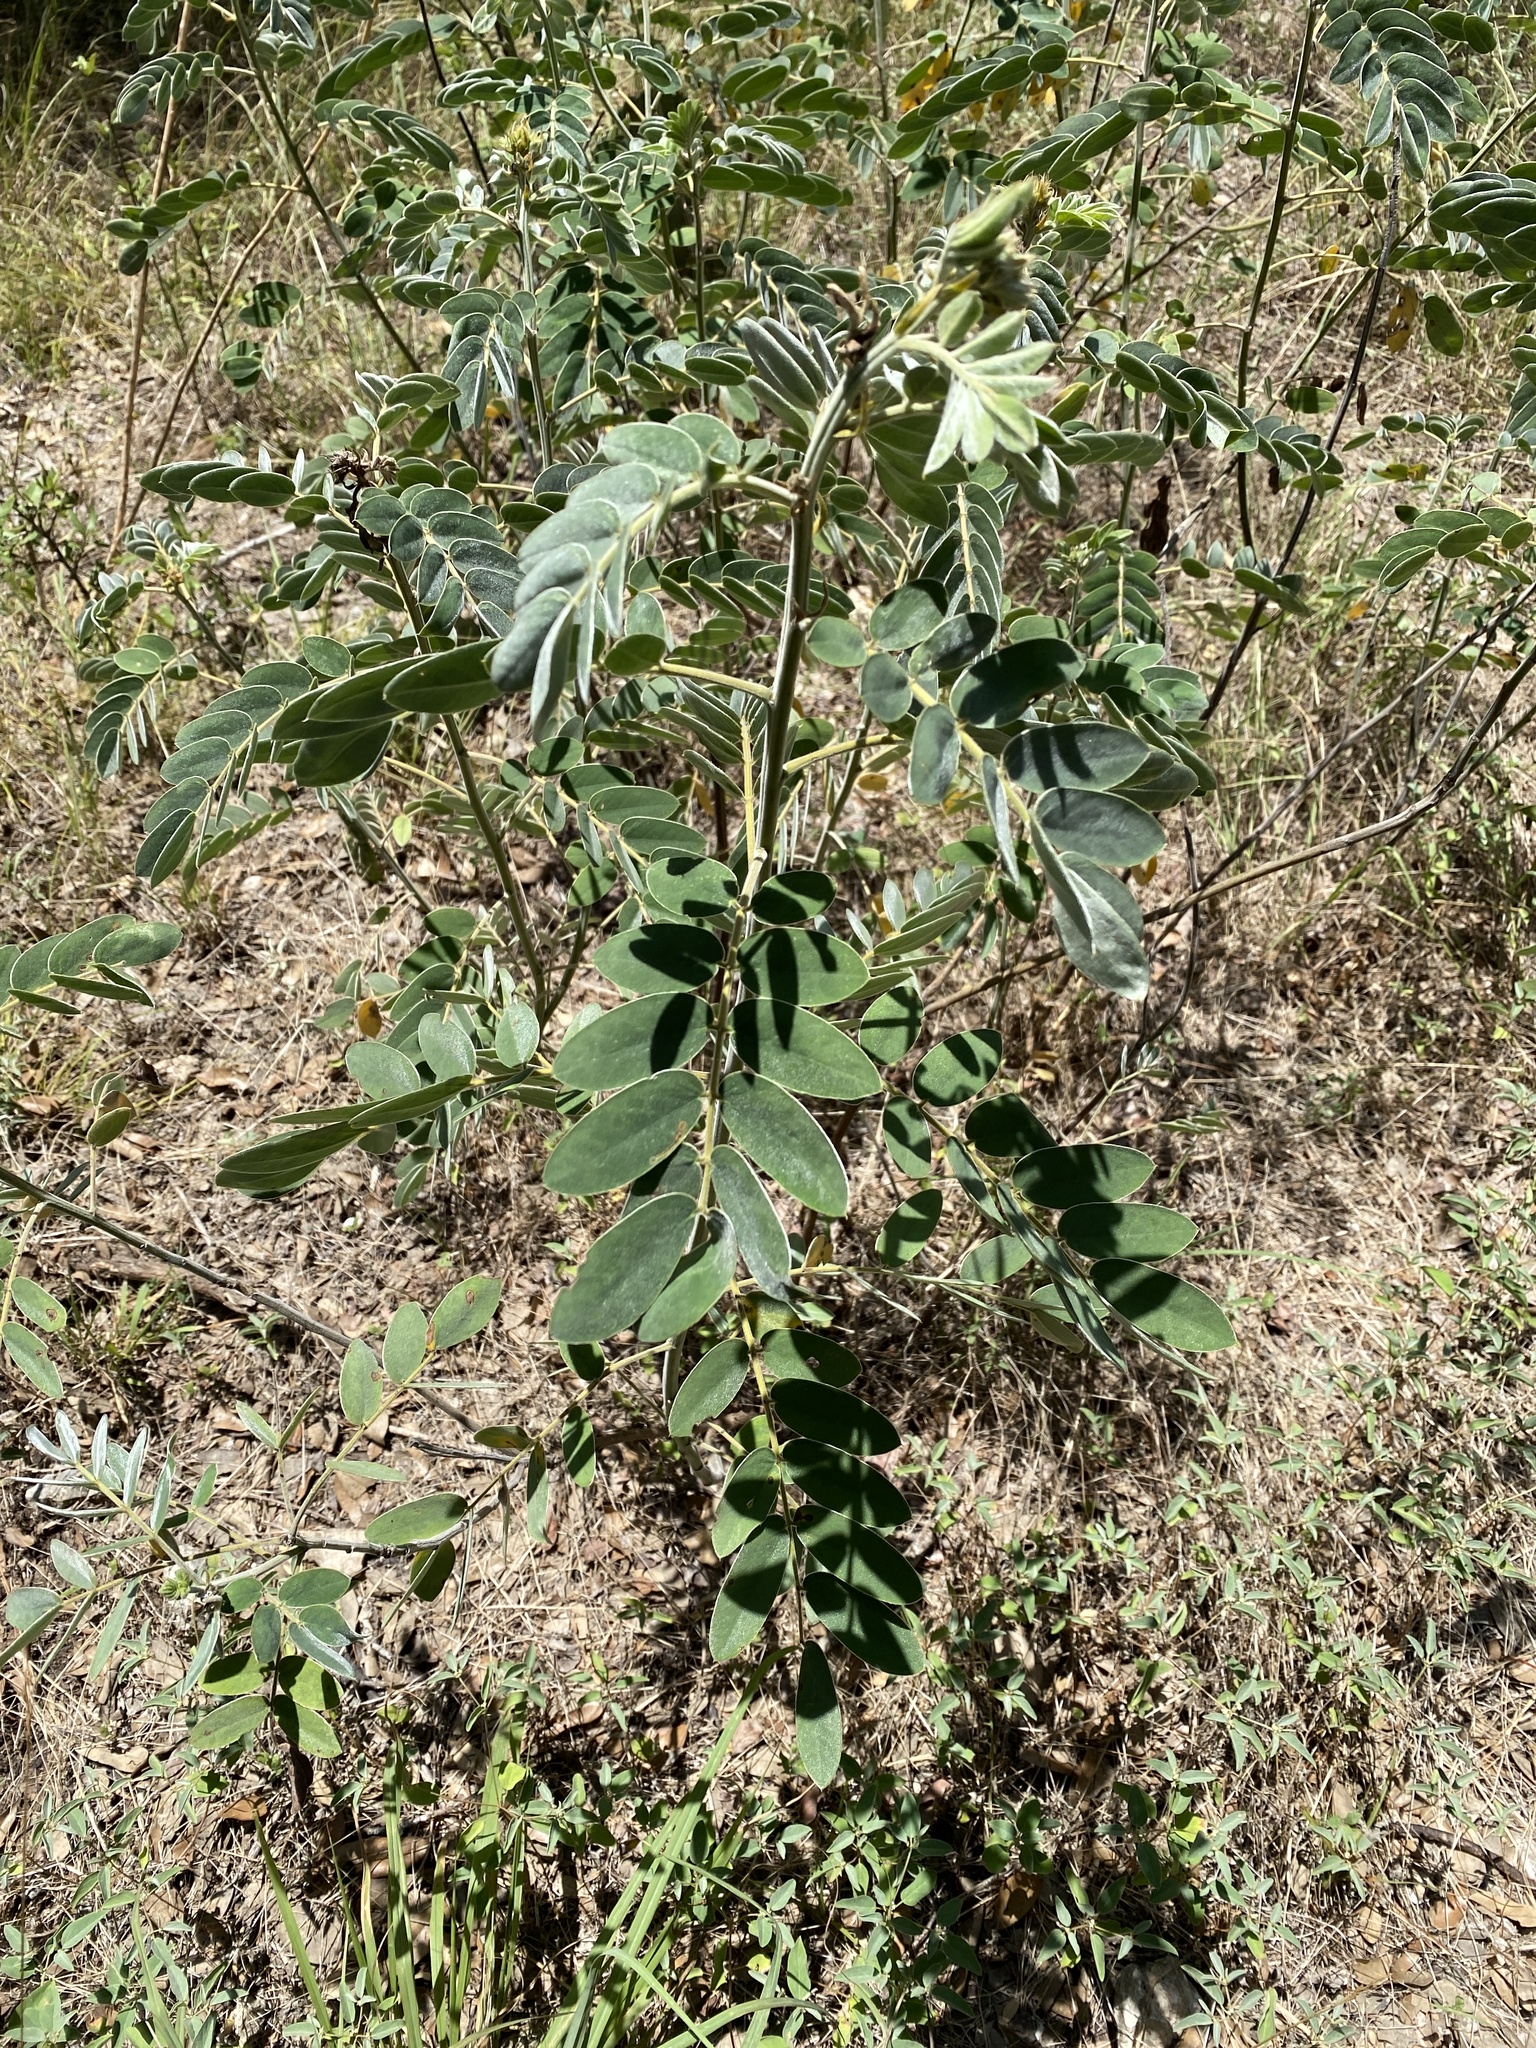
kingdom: Plantae
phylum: Tracheophyta
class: Magnoliopsida
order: Fabales
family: Fabaceae
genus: Senna
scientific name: Senna lindheimeriana
